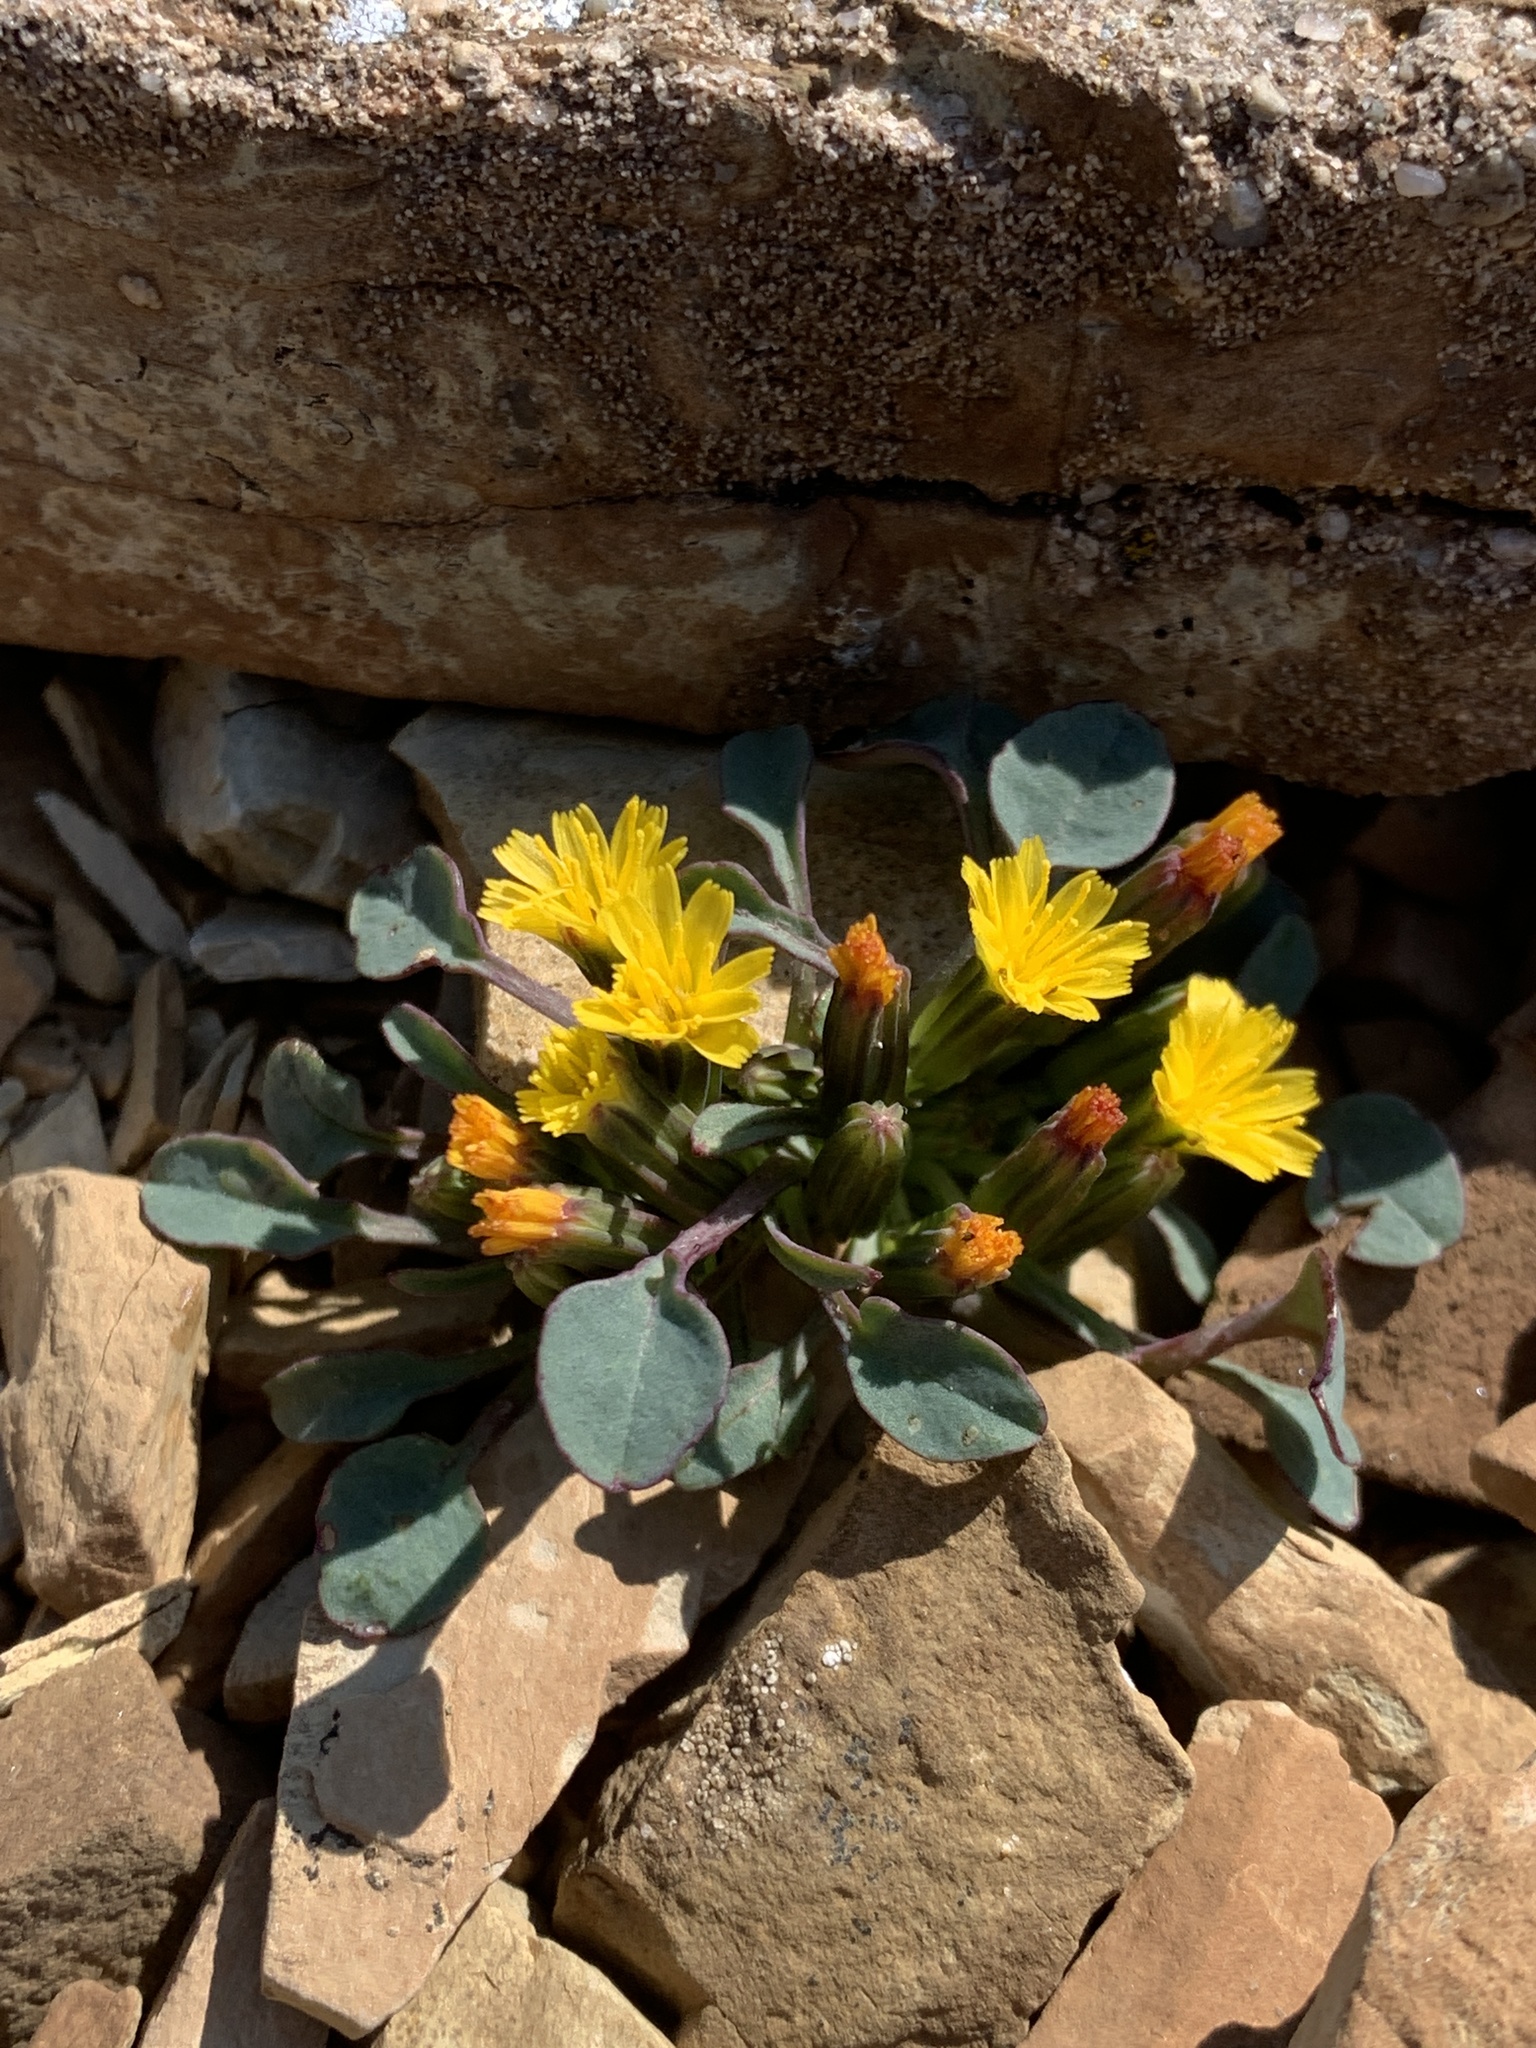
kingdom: Plantae
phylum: Tracheophyta
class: Magnoliopsida
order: Asterales
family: Asteraceae
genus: Askellia
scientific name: Askellia pygmaea
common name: Dwarf alpine hawksbeard
